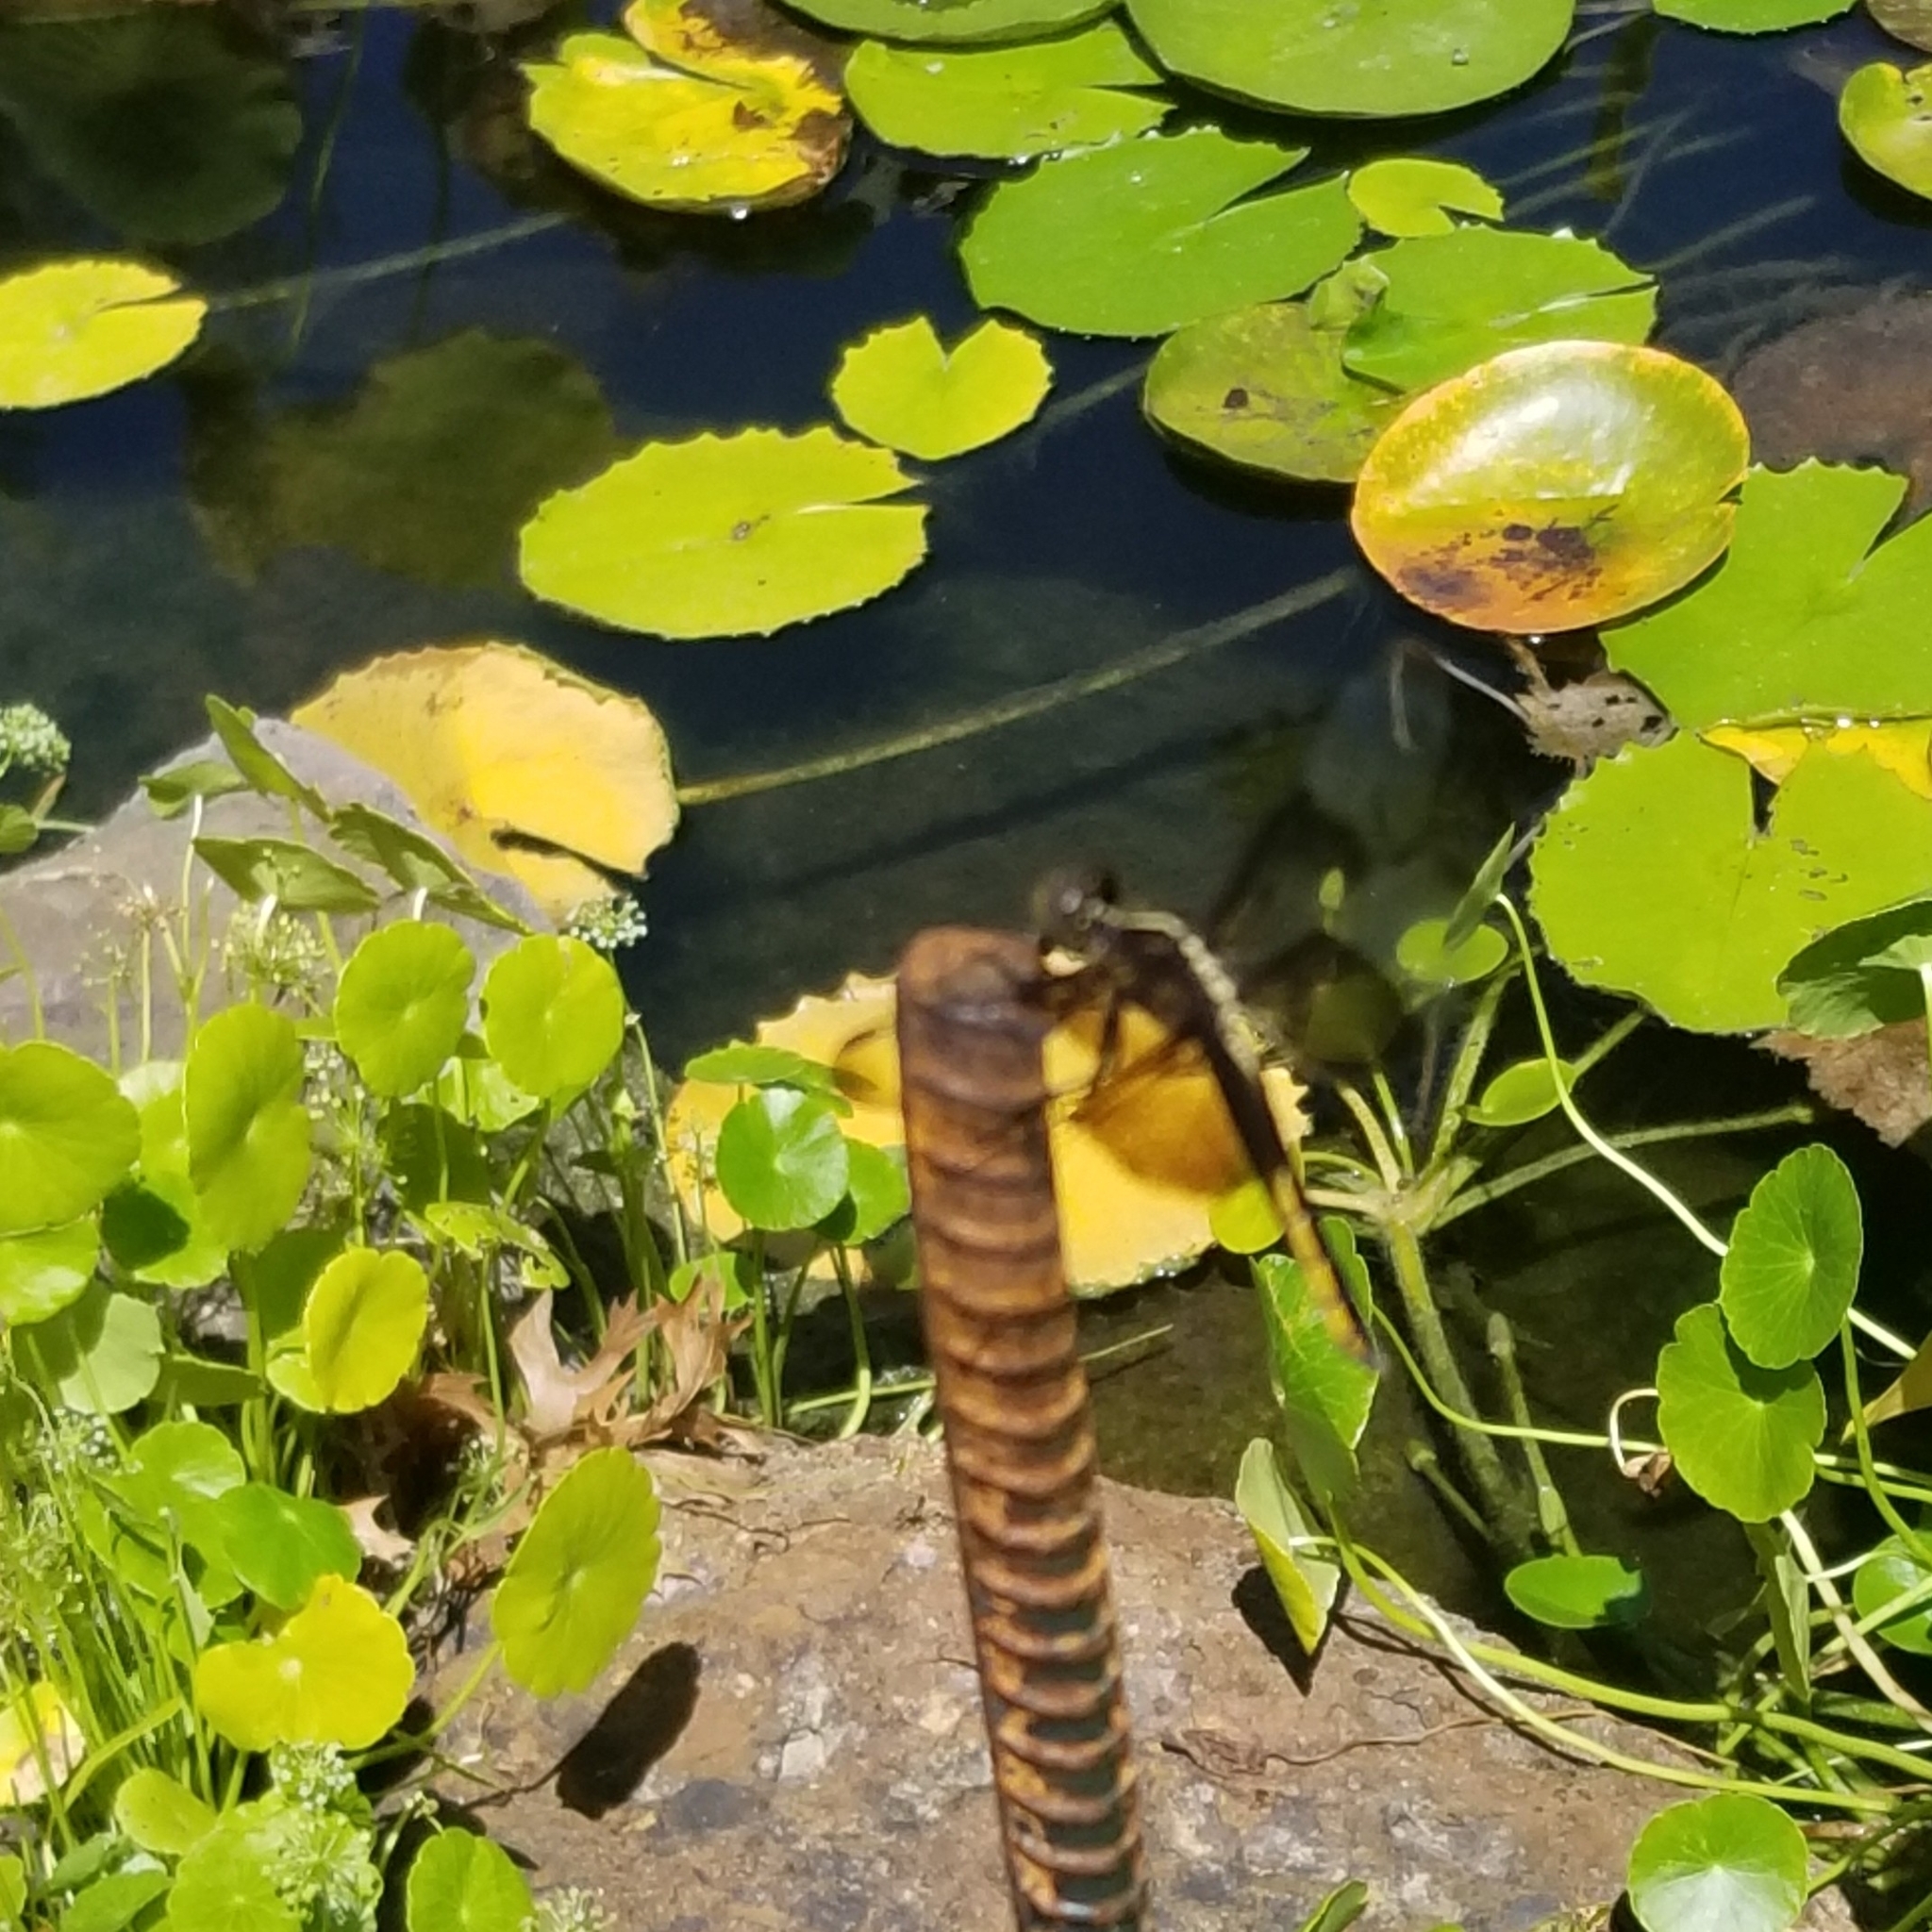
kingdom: Animalia
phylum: Arthropoda
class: Insecta
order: Odonata
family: Libellulidae
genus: Libellula
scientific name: Libellula luctuosa
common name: Widow skimmer
